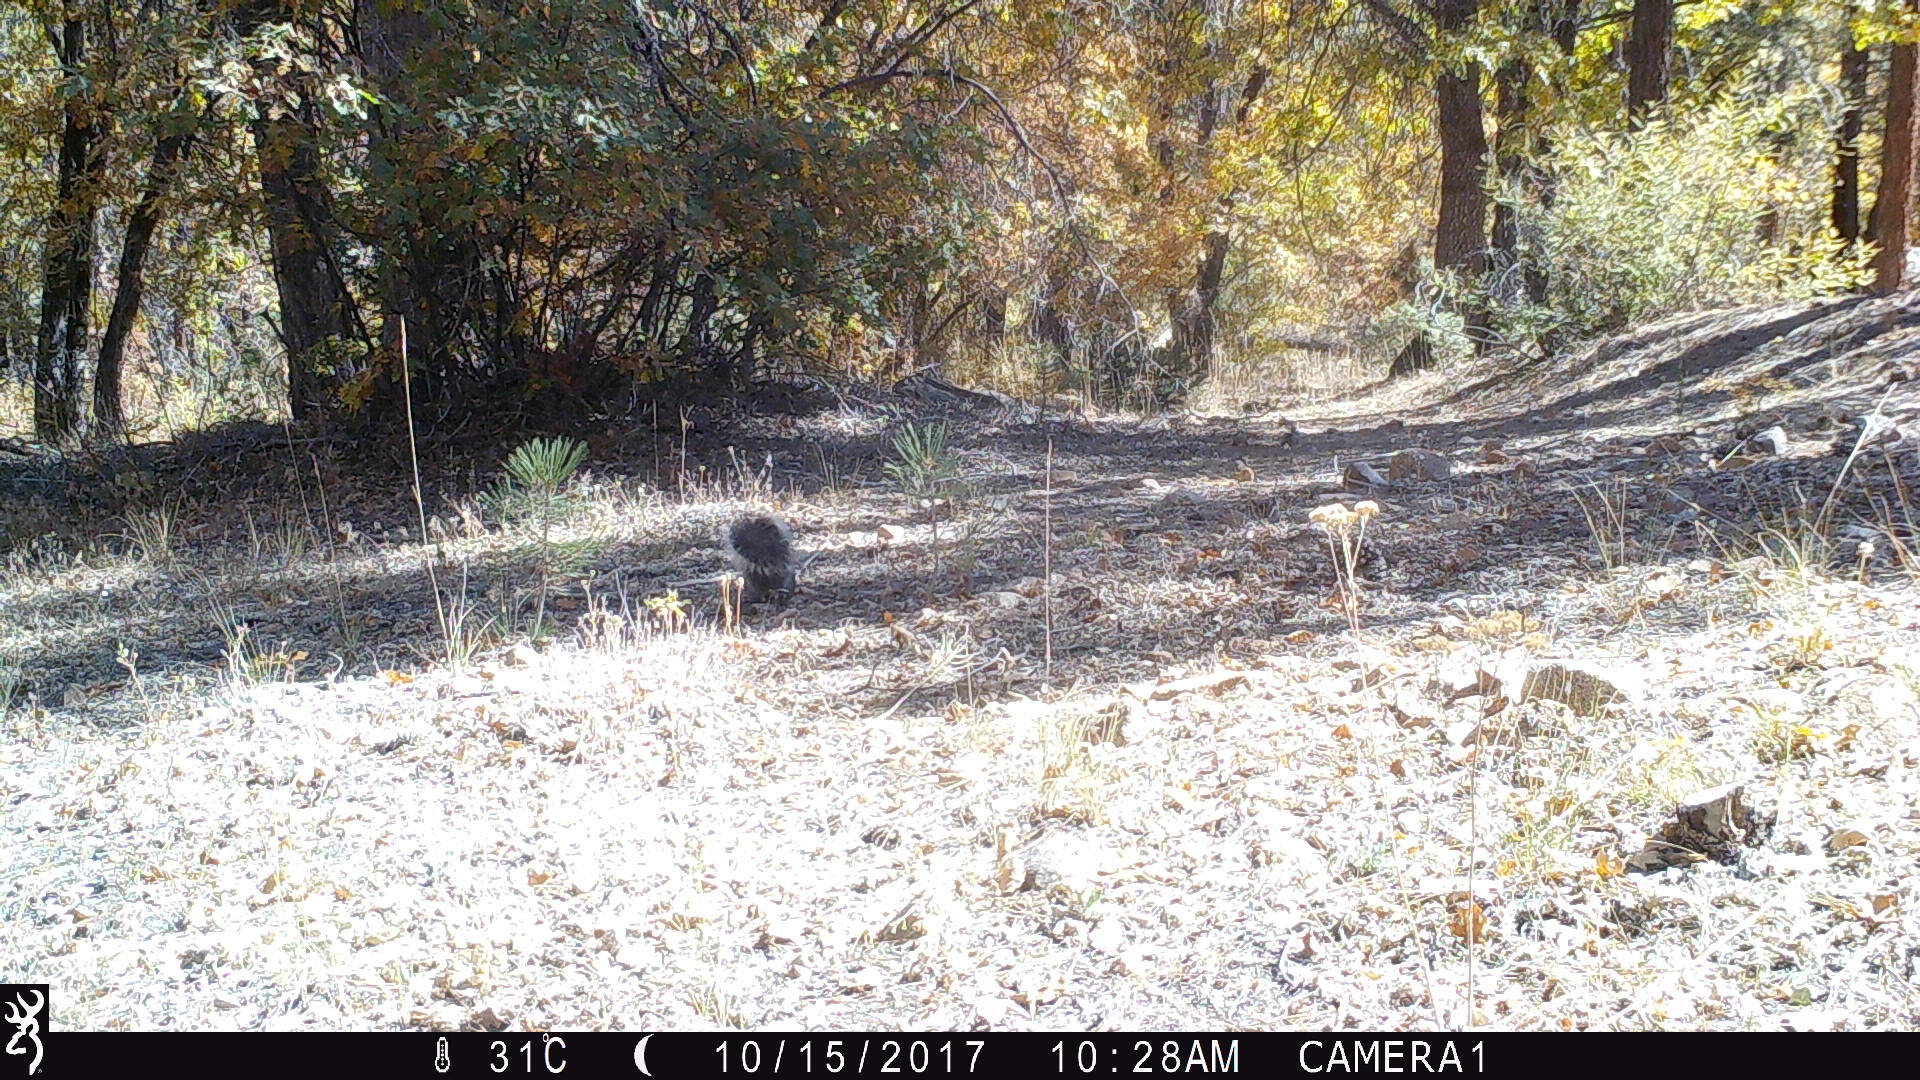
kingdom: Animalia
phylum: Chordata
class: Mammalia
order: Rodentia
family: Sciuridae
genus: Sciurus
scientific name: Sciurus griseus
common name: Western gray squirrel
